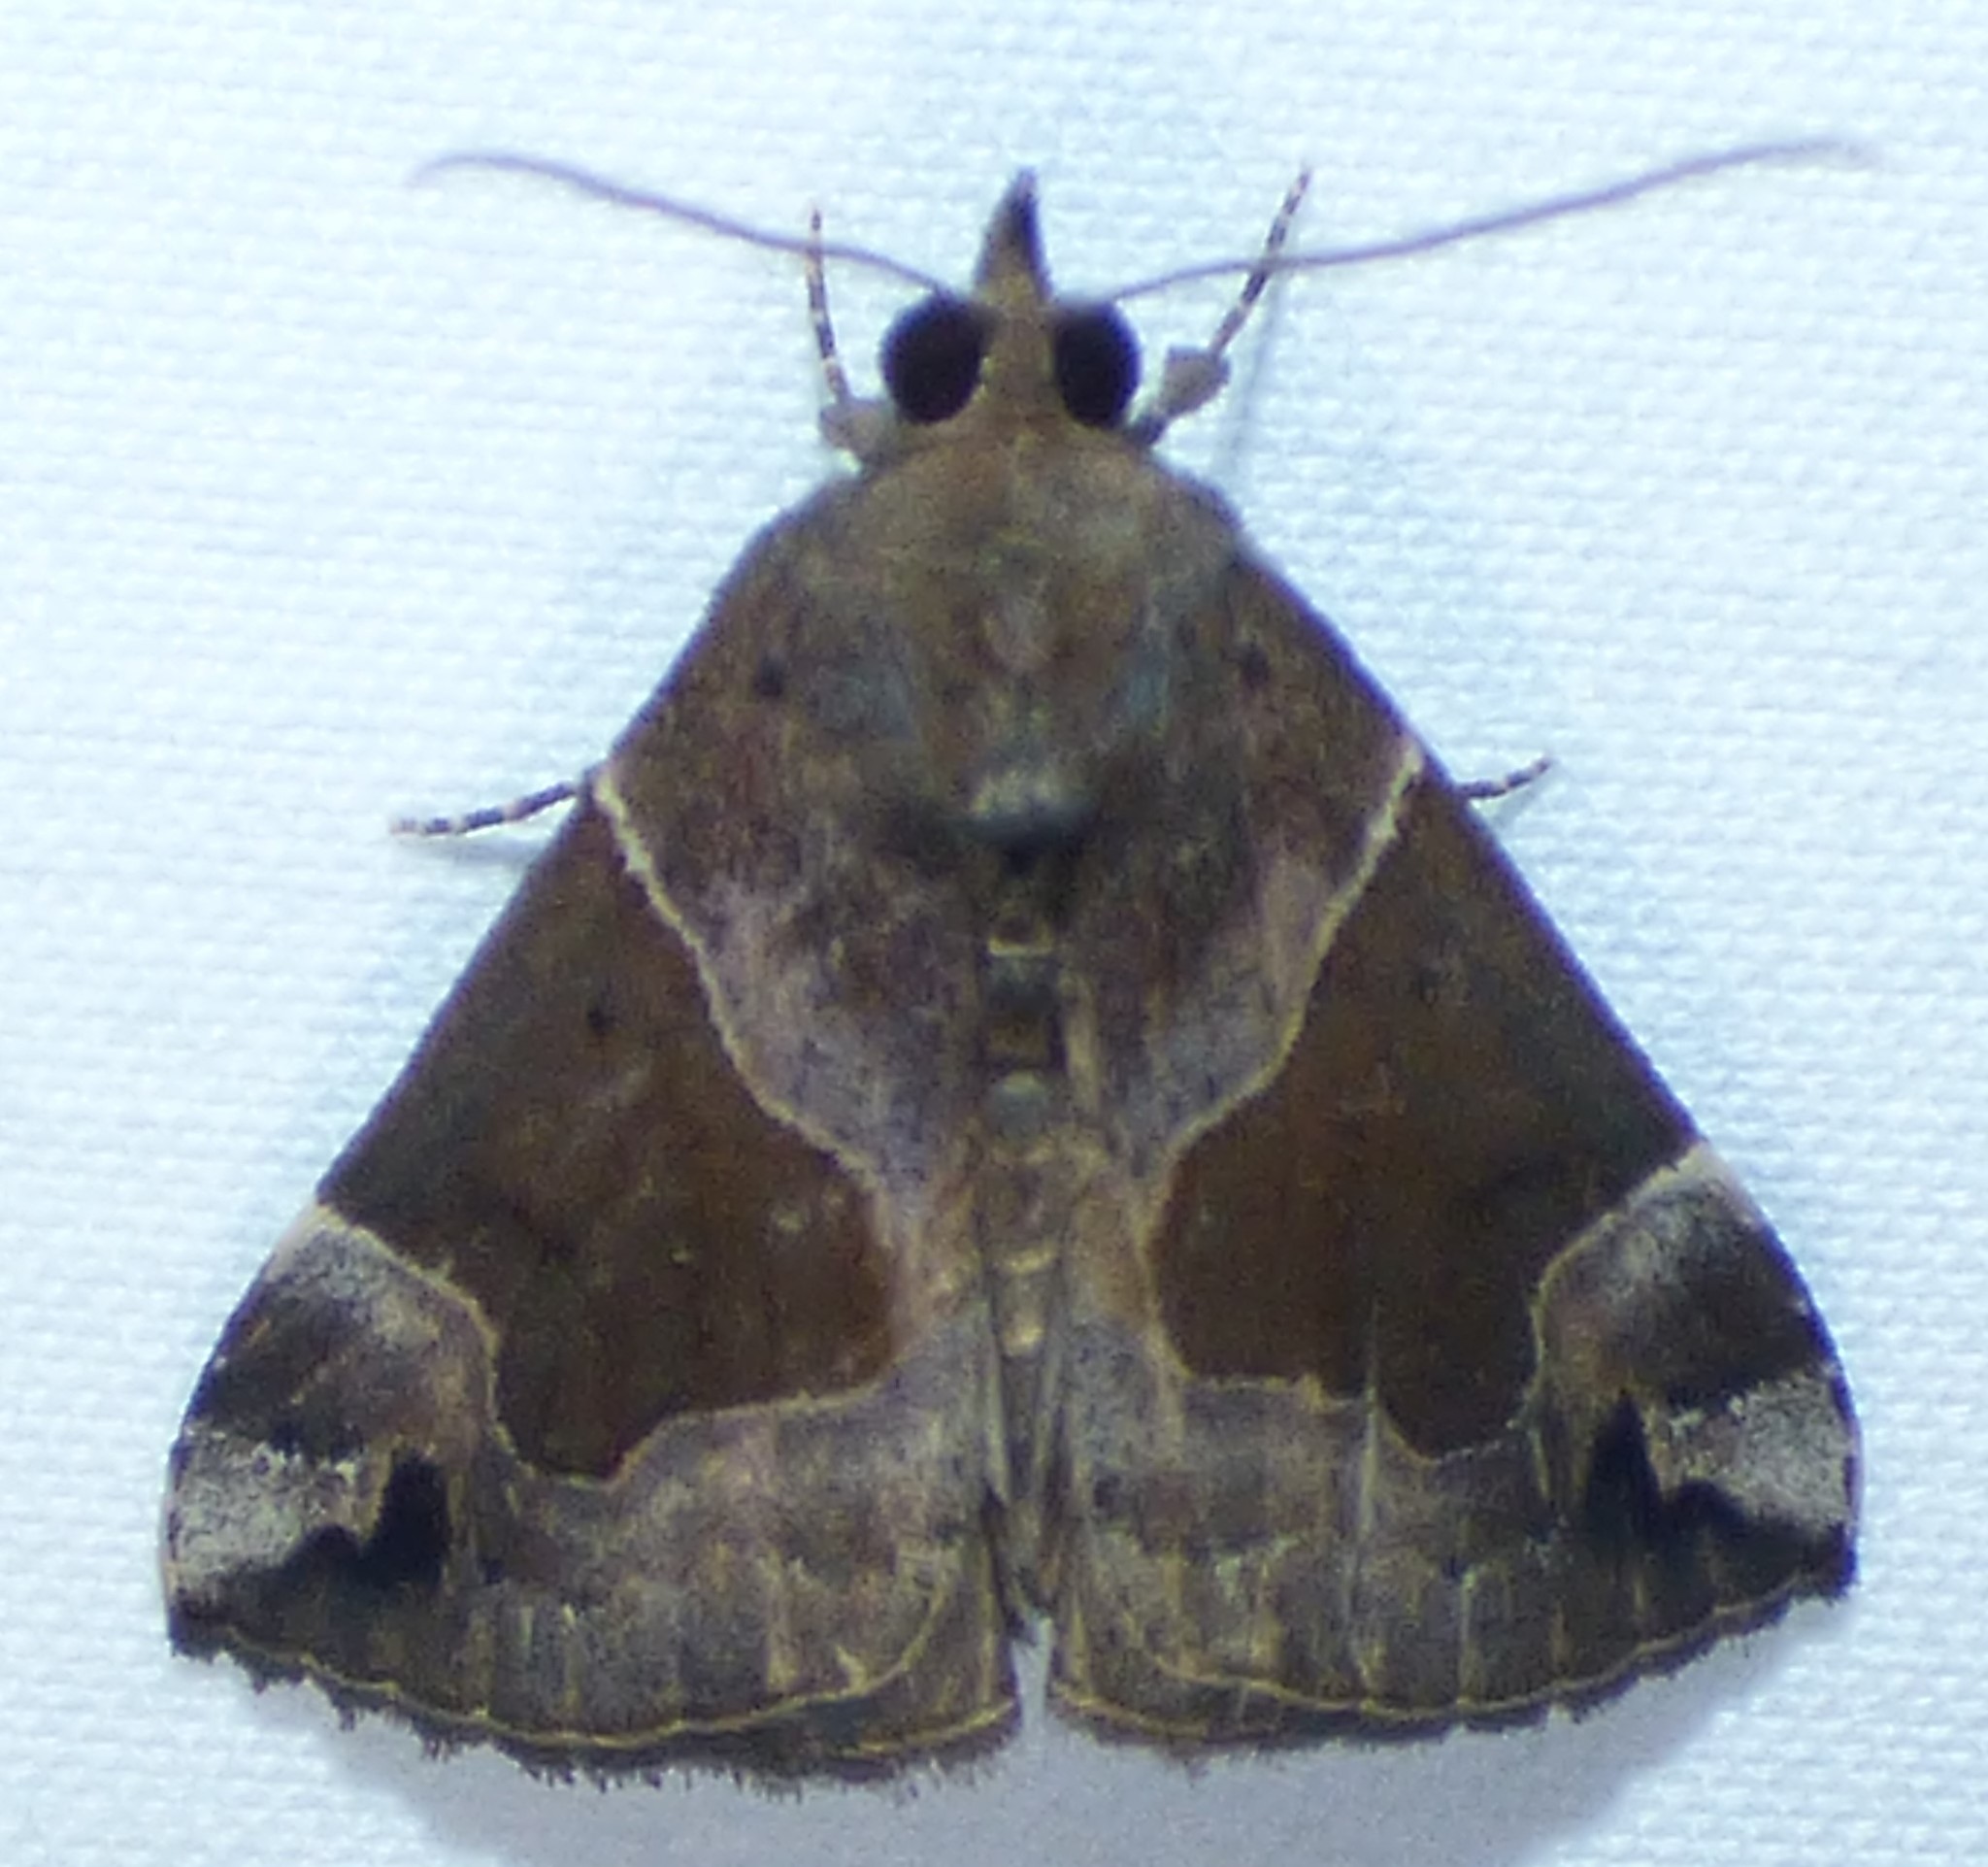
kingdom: Animalia
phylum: Arthropoda
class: Insecta
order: Lepidoptera
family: Erebidae
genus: Hypena
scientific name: Hypena manalis
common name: Flowing-line bomolocha moth
